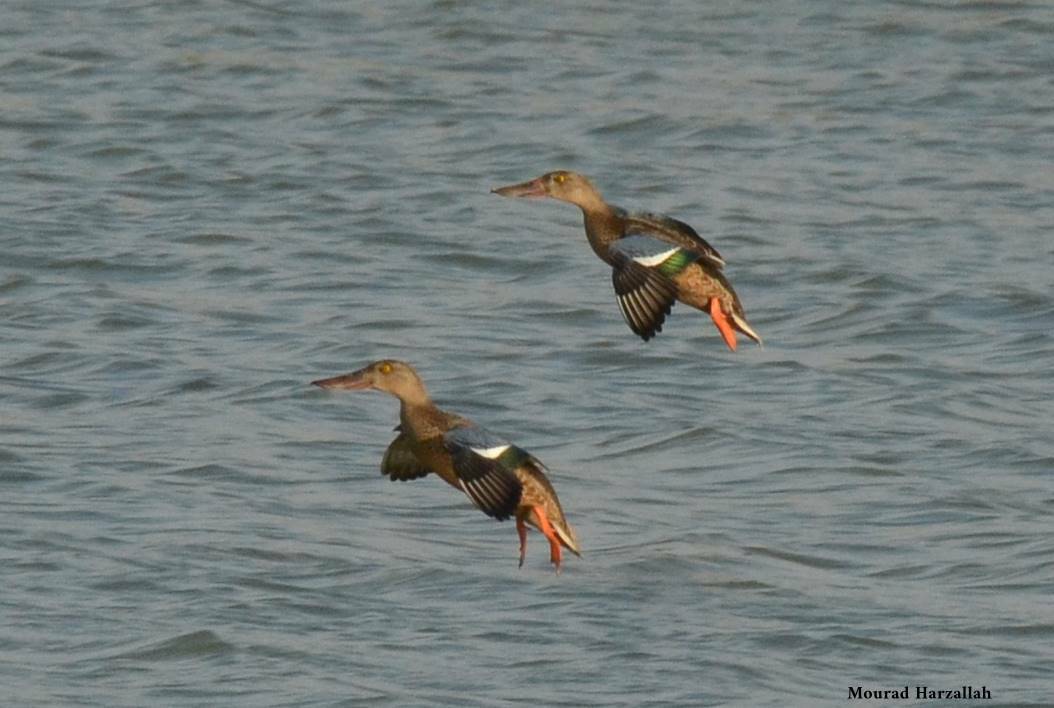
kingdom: Animalia
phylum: Chordata
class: Aves
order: Anseriformes
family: Anatidae
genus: Spatula
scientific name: Spatula clypeata
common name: Northern shoveler
